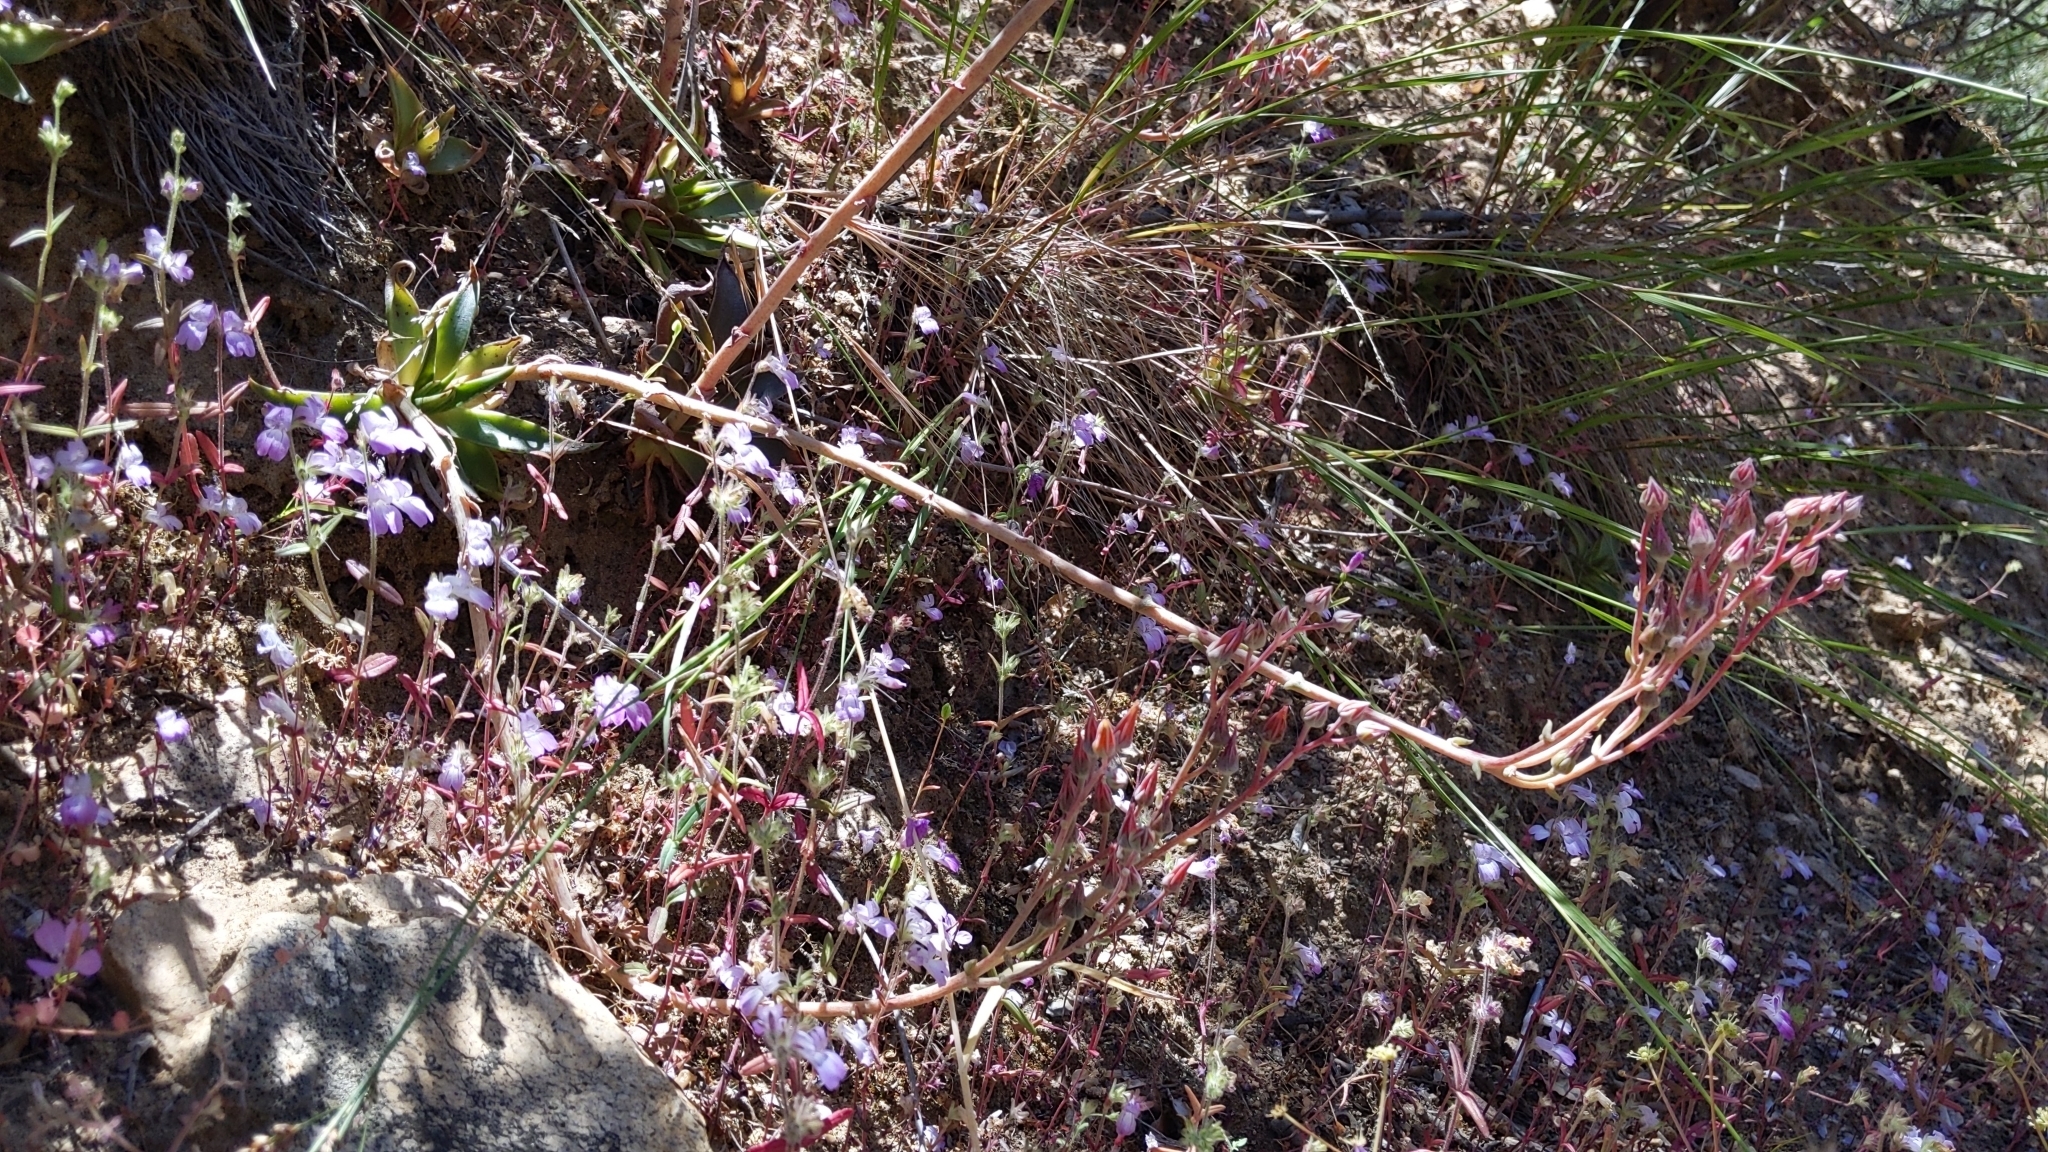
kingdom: Plantae
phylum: Tracheophyta
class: Magnoliopsida
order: Saxifragales
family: Crassulaceae
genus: Dudleya
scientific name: Dudleya lanceolata
